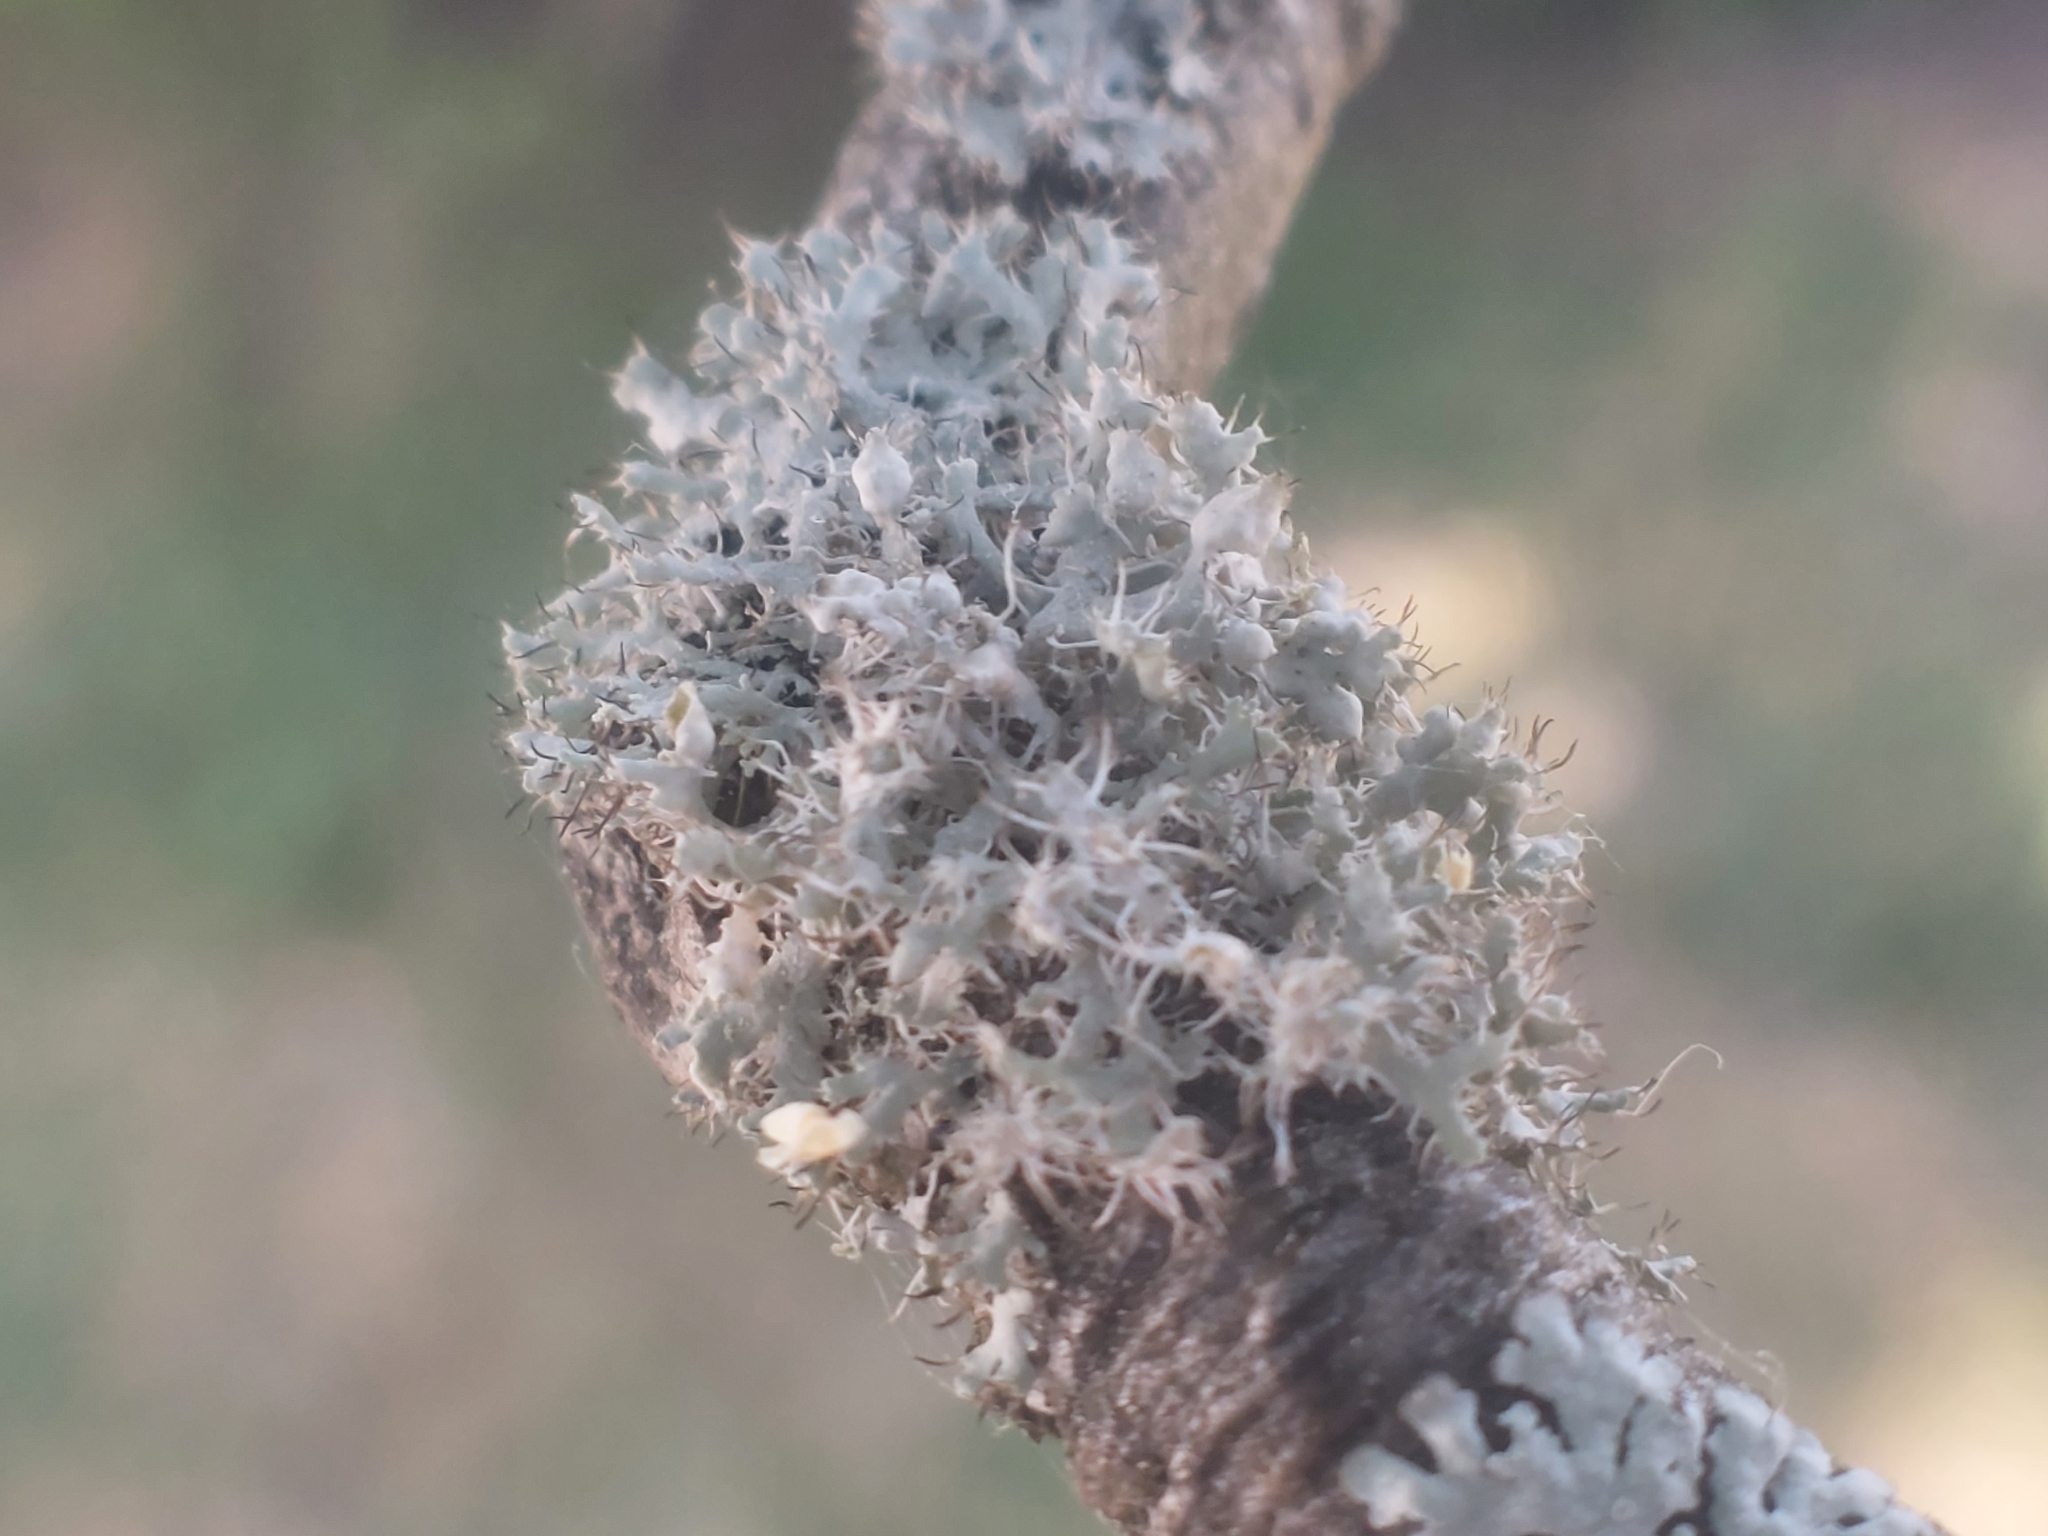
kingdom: Fungi
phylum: Ascomycota
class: Lecanoromycetes
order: Caliciales
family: Physciaceae
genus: Physcia
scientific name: Physcia adscendens
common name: Hooded rosette lichen
